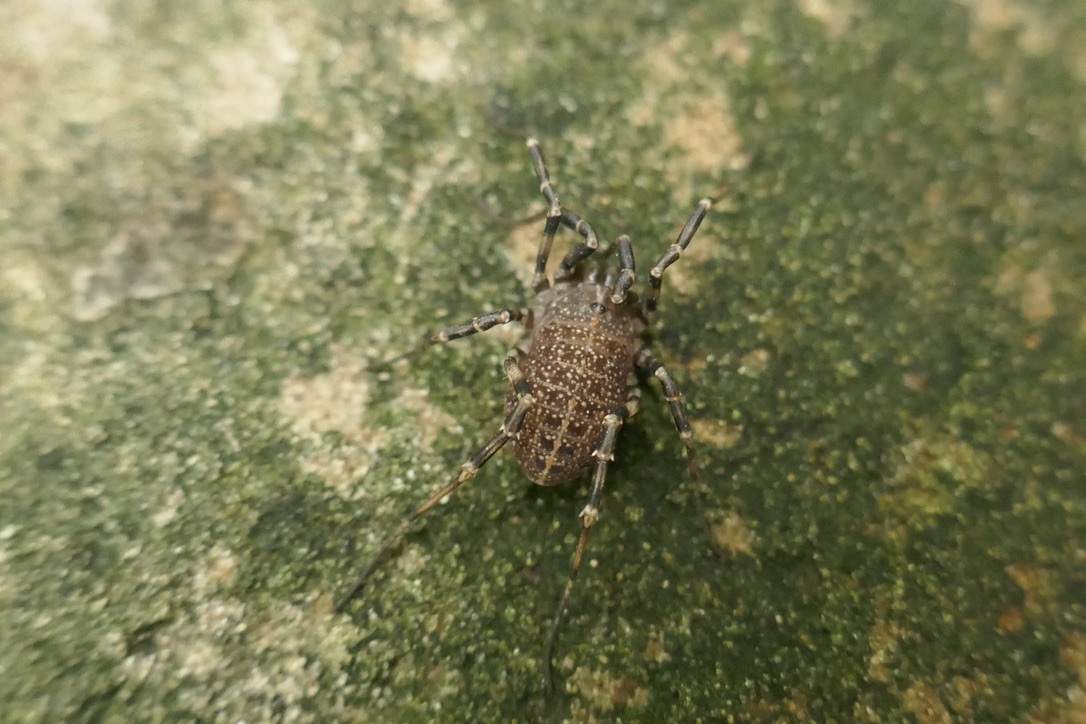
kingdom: Animalia
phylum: Arthropoda
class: Arachnida
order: Opiliones
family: Phalangiidae
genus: Egaenus
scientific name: Egaenus convexus
